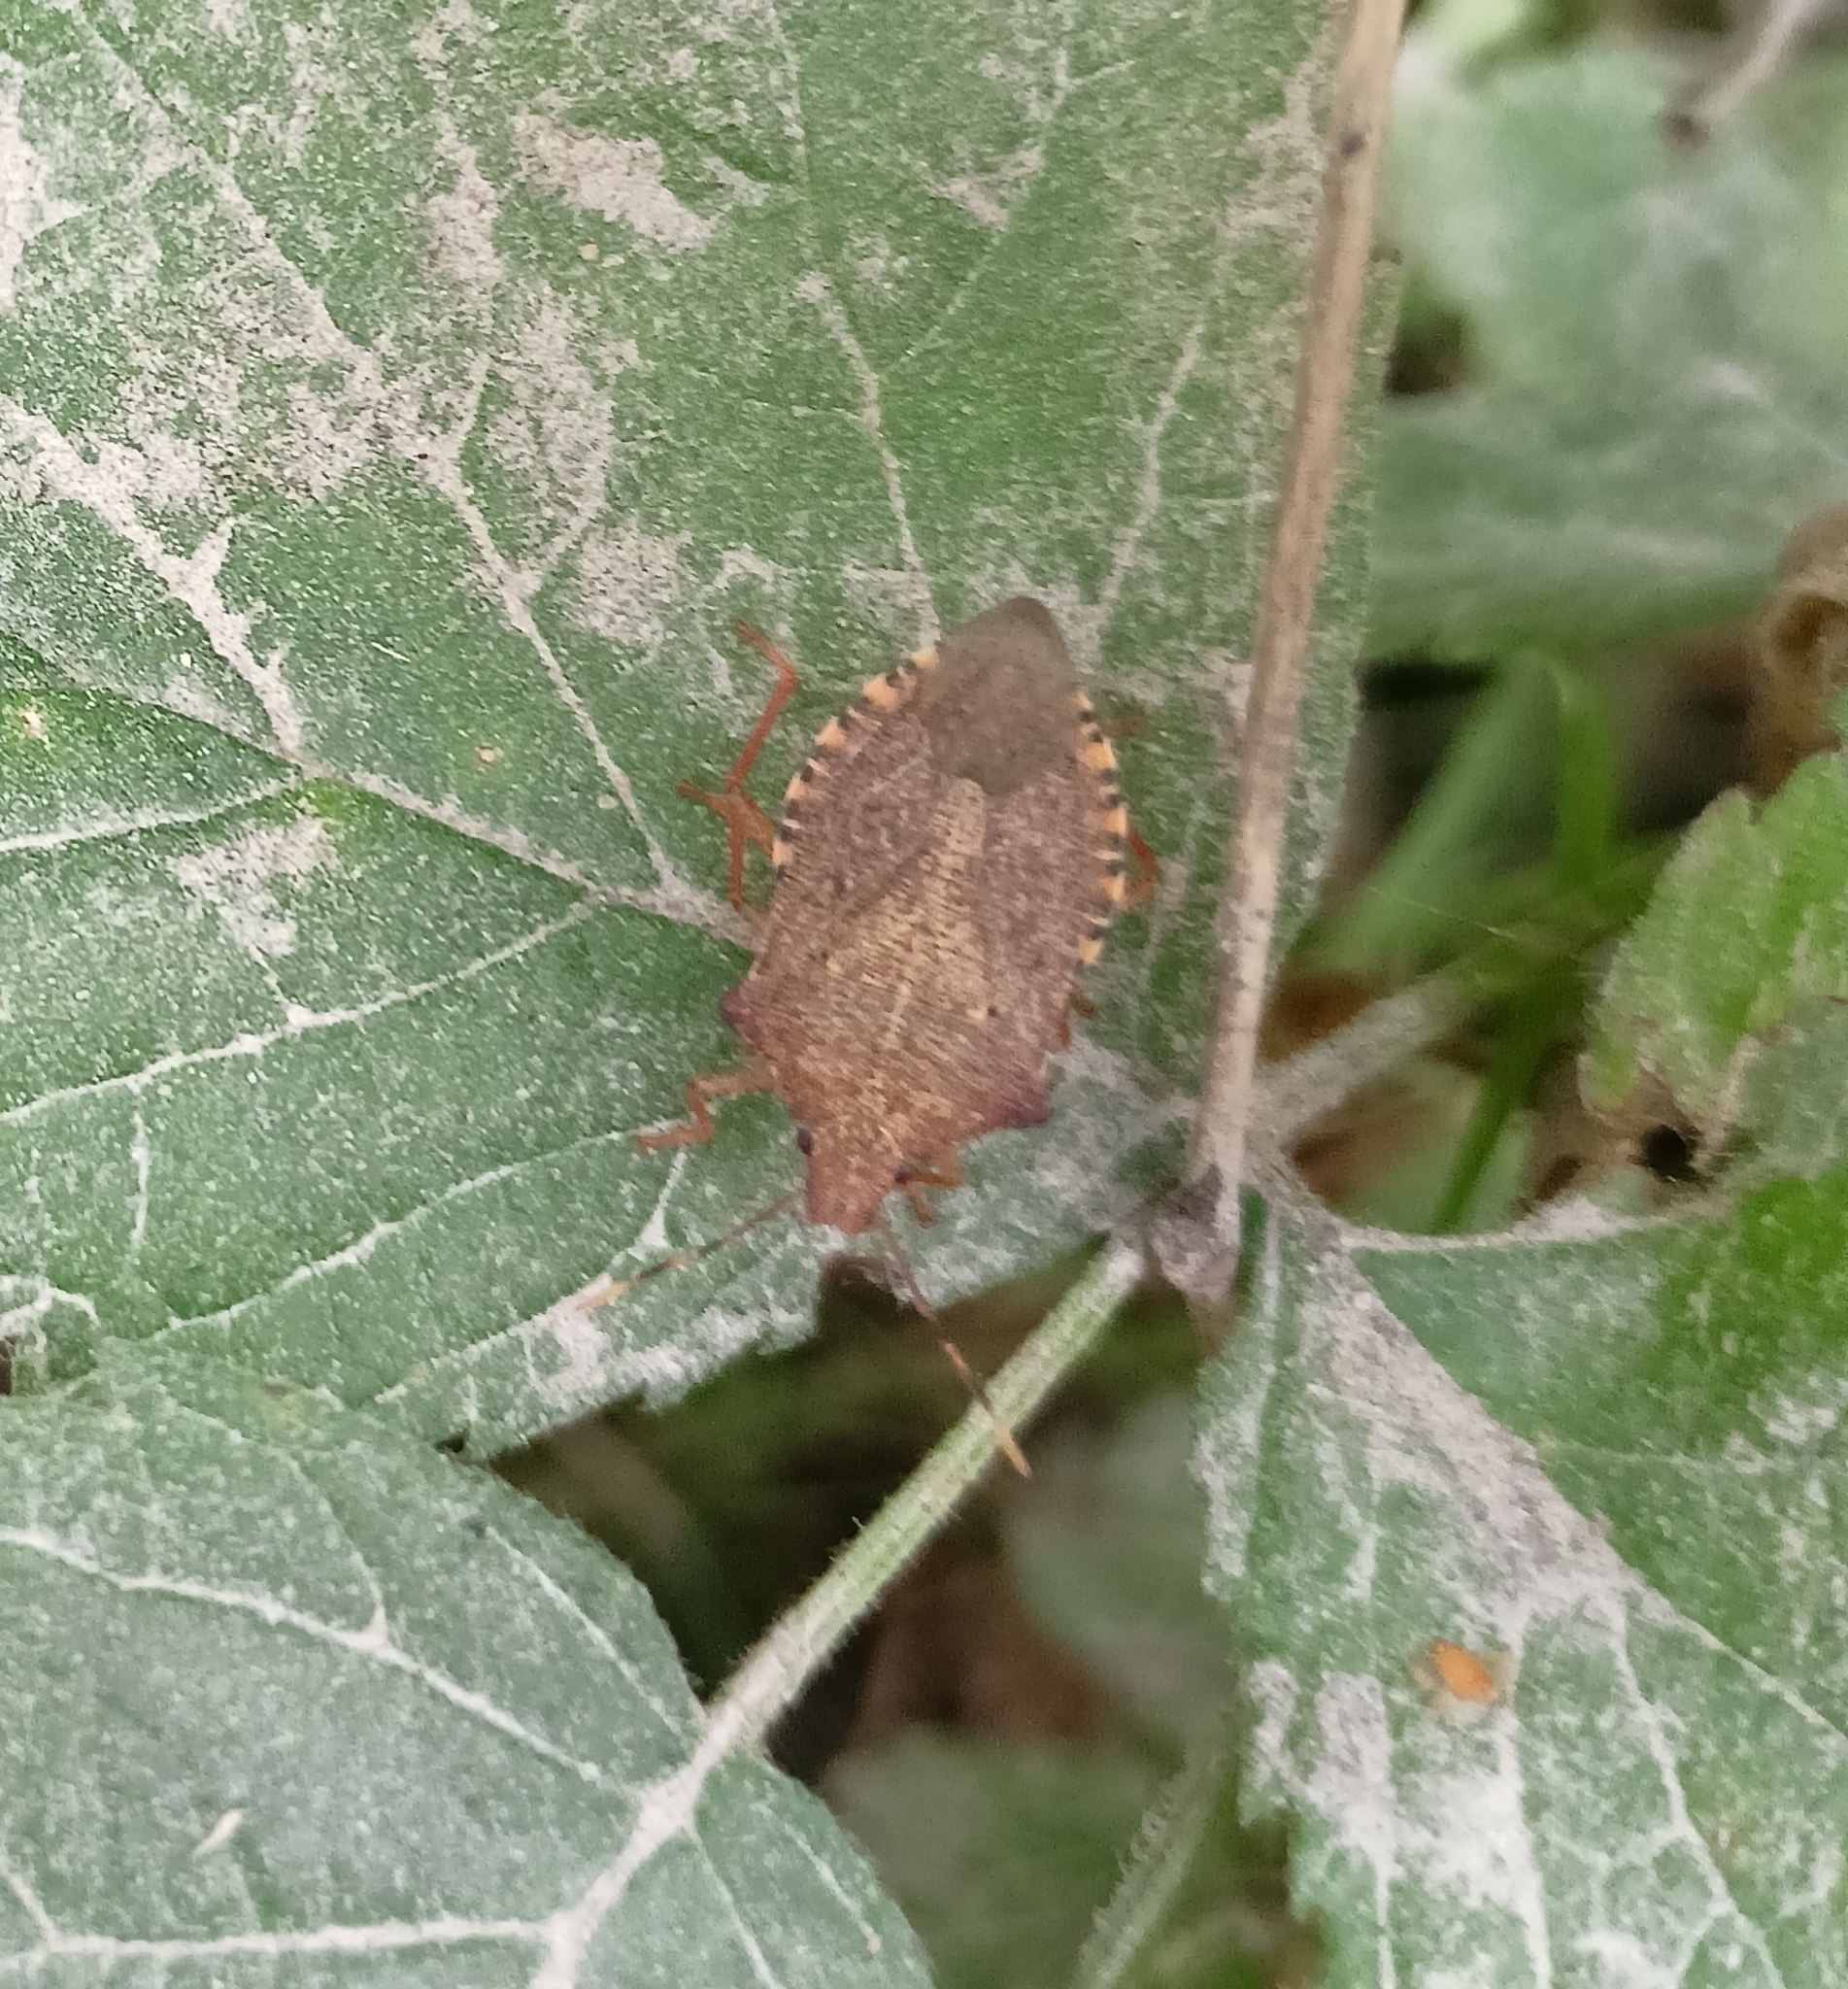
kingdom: Animalia
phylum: Arthropoda
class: Insecta
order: Hemiptera
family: Pentatomidae
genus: Arma
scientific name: Arma custos
